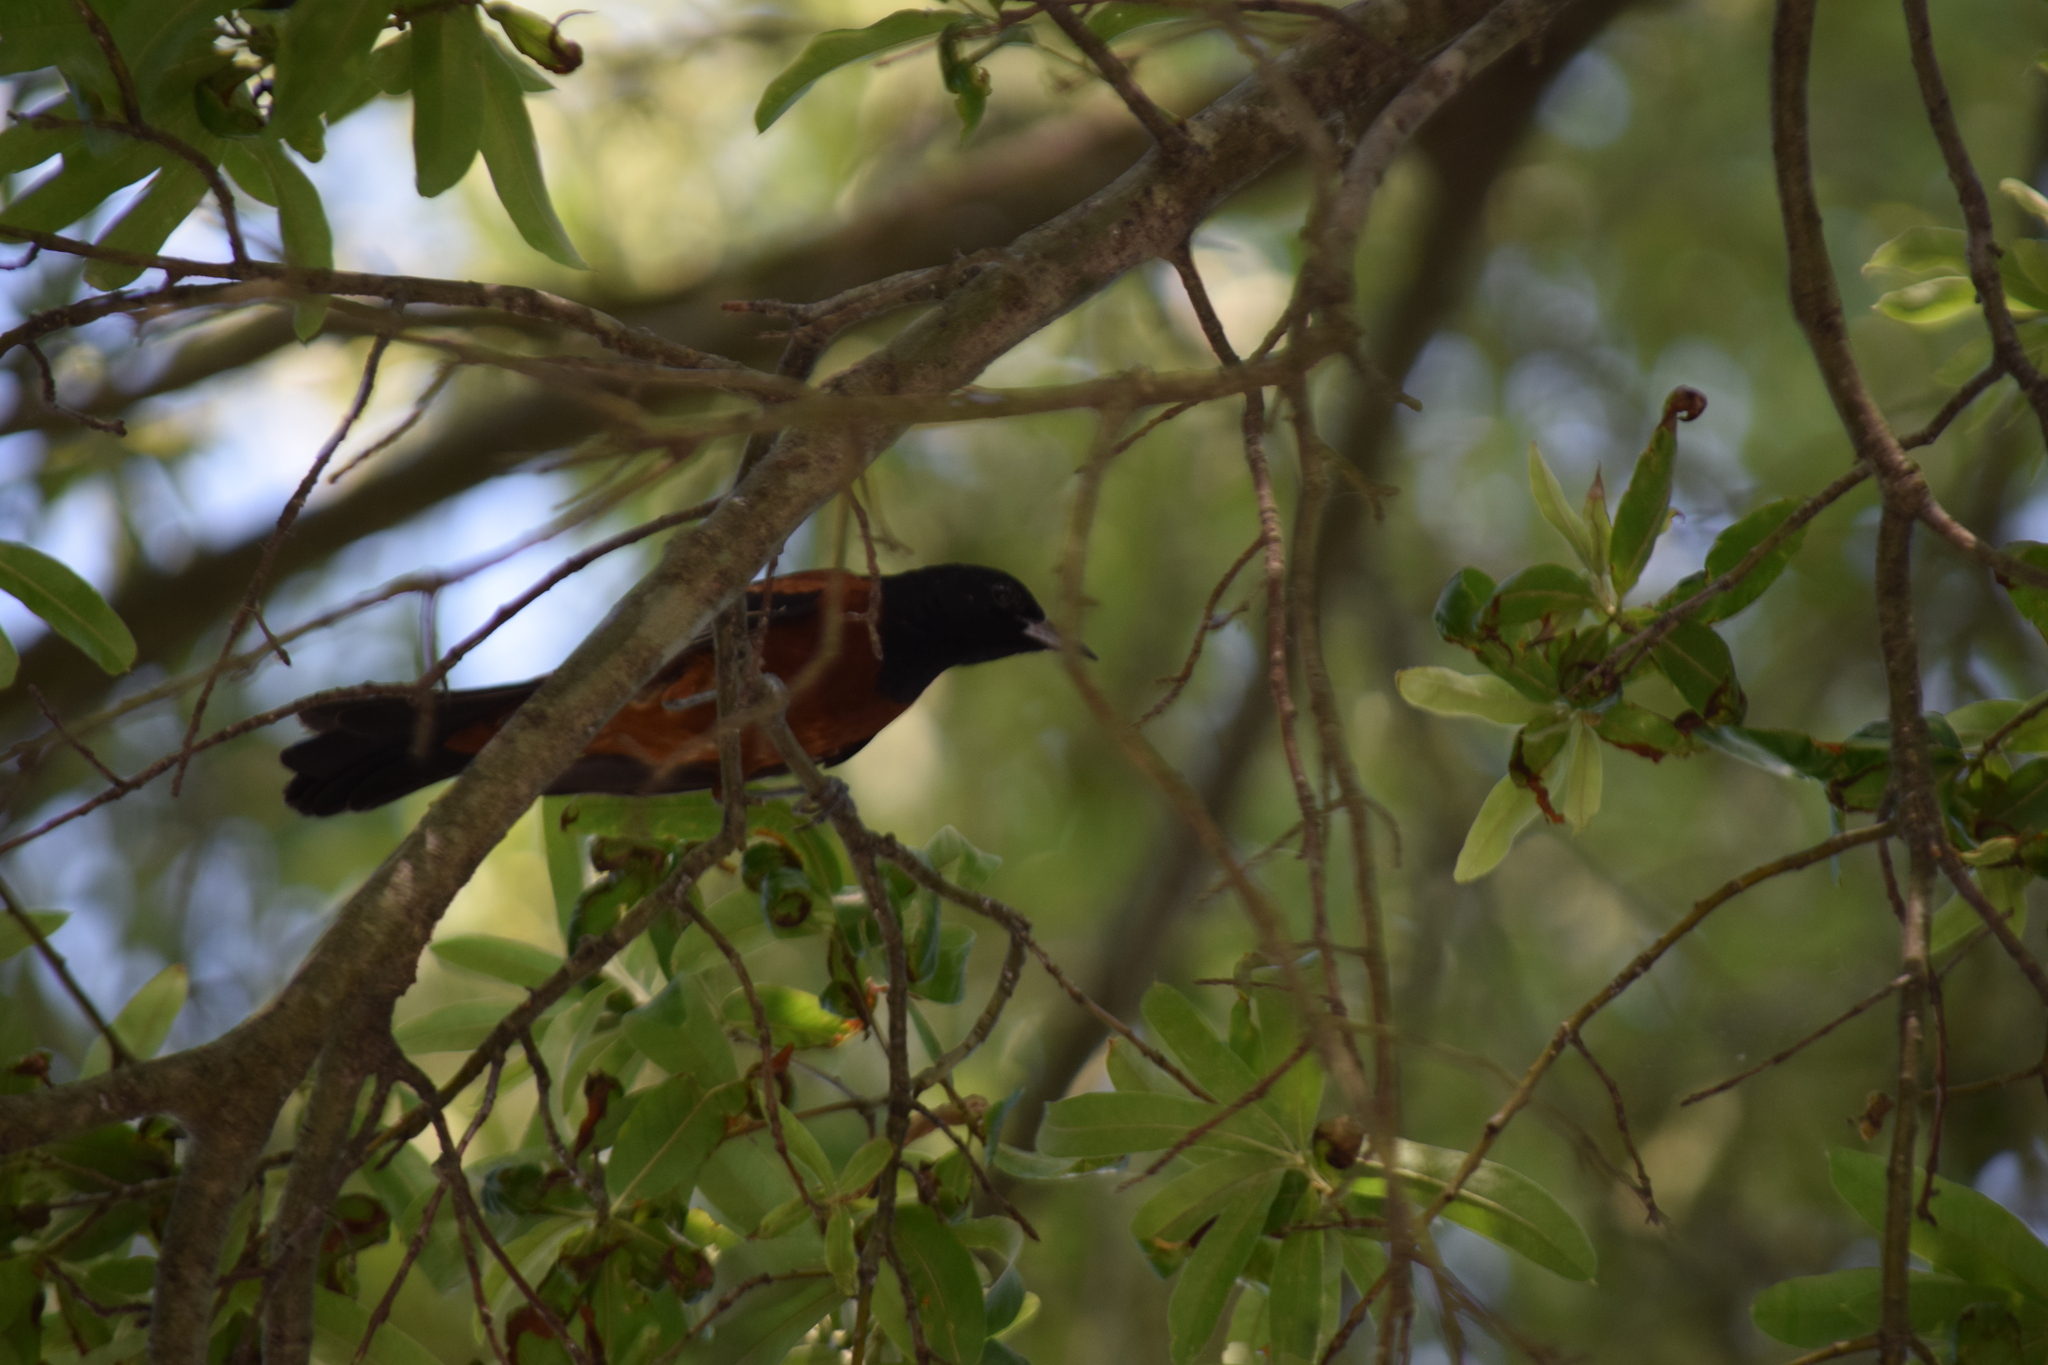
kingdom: Animalia
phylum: Chordata
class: Aves
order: Passeriformes
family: Icteridae
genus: Icterus
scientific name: Icterus spurius
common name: Orchard oriole
